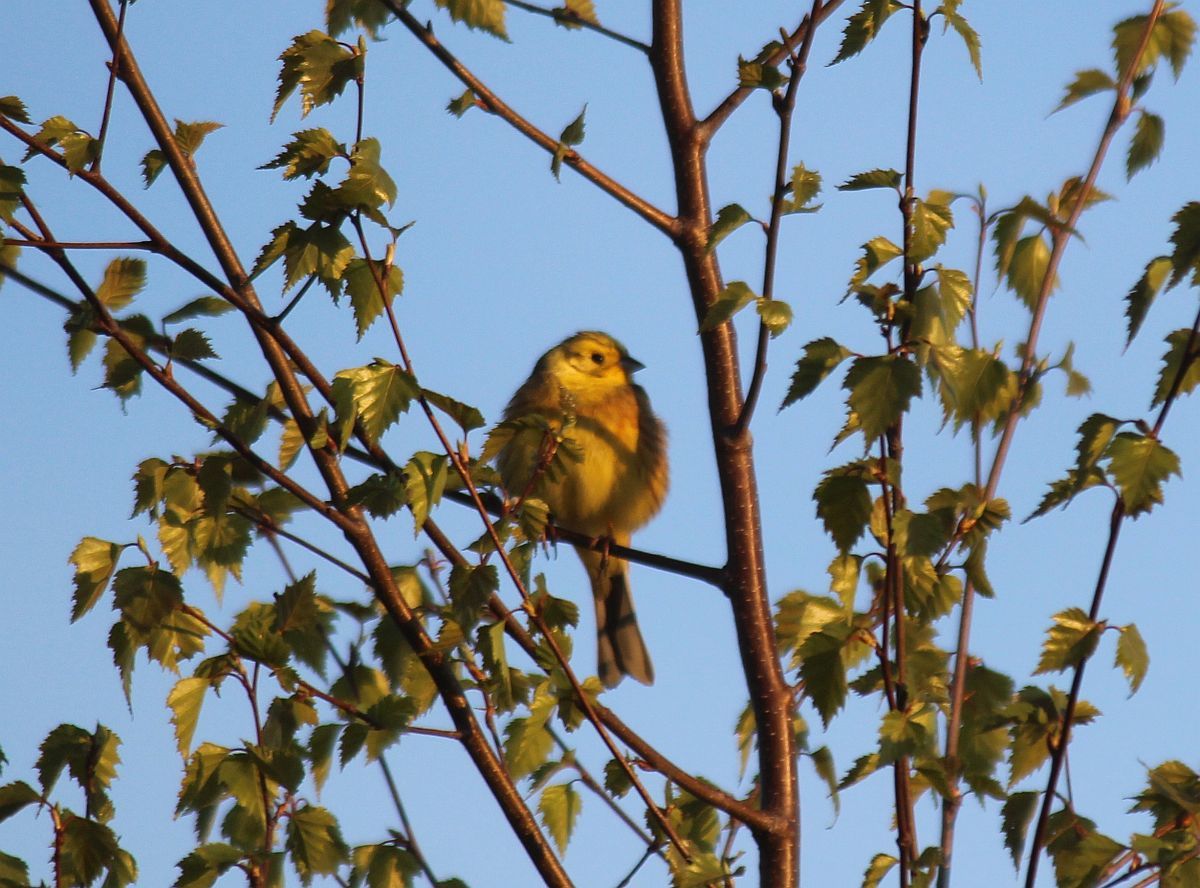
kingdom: Animalia
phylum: Chordata
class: Aves
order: Passeriformes
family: Emberizidae
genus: Emberiza
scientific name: Emberiza citrinella
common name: Yellowhammer
